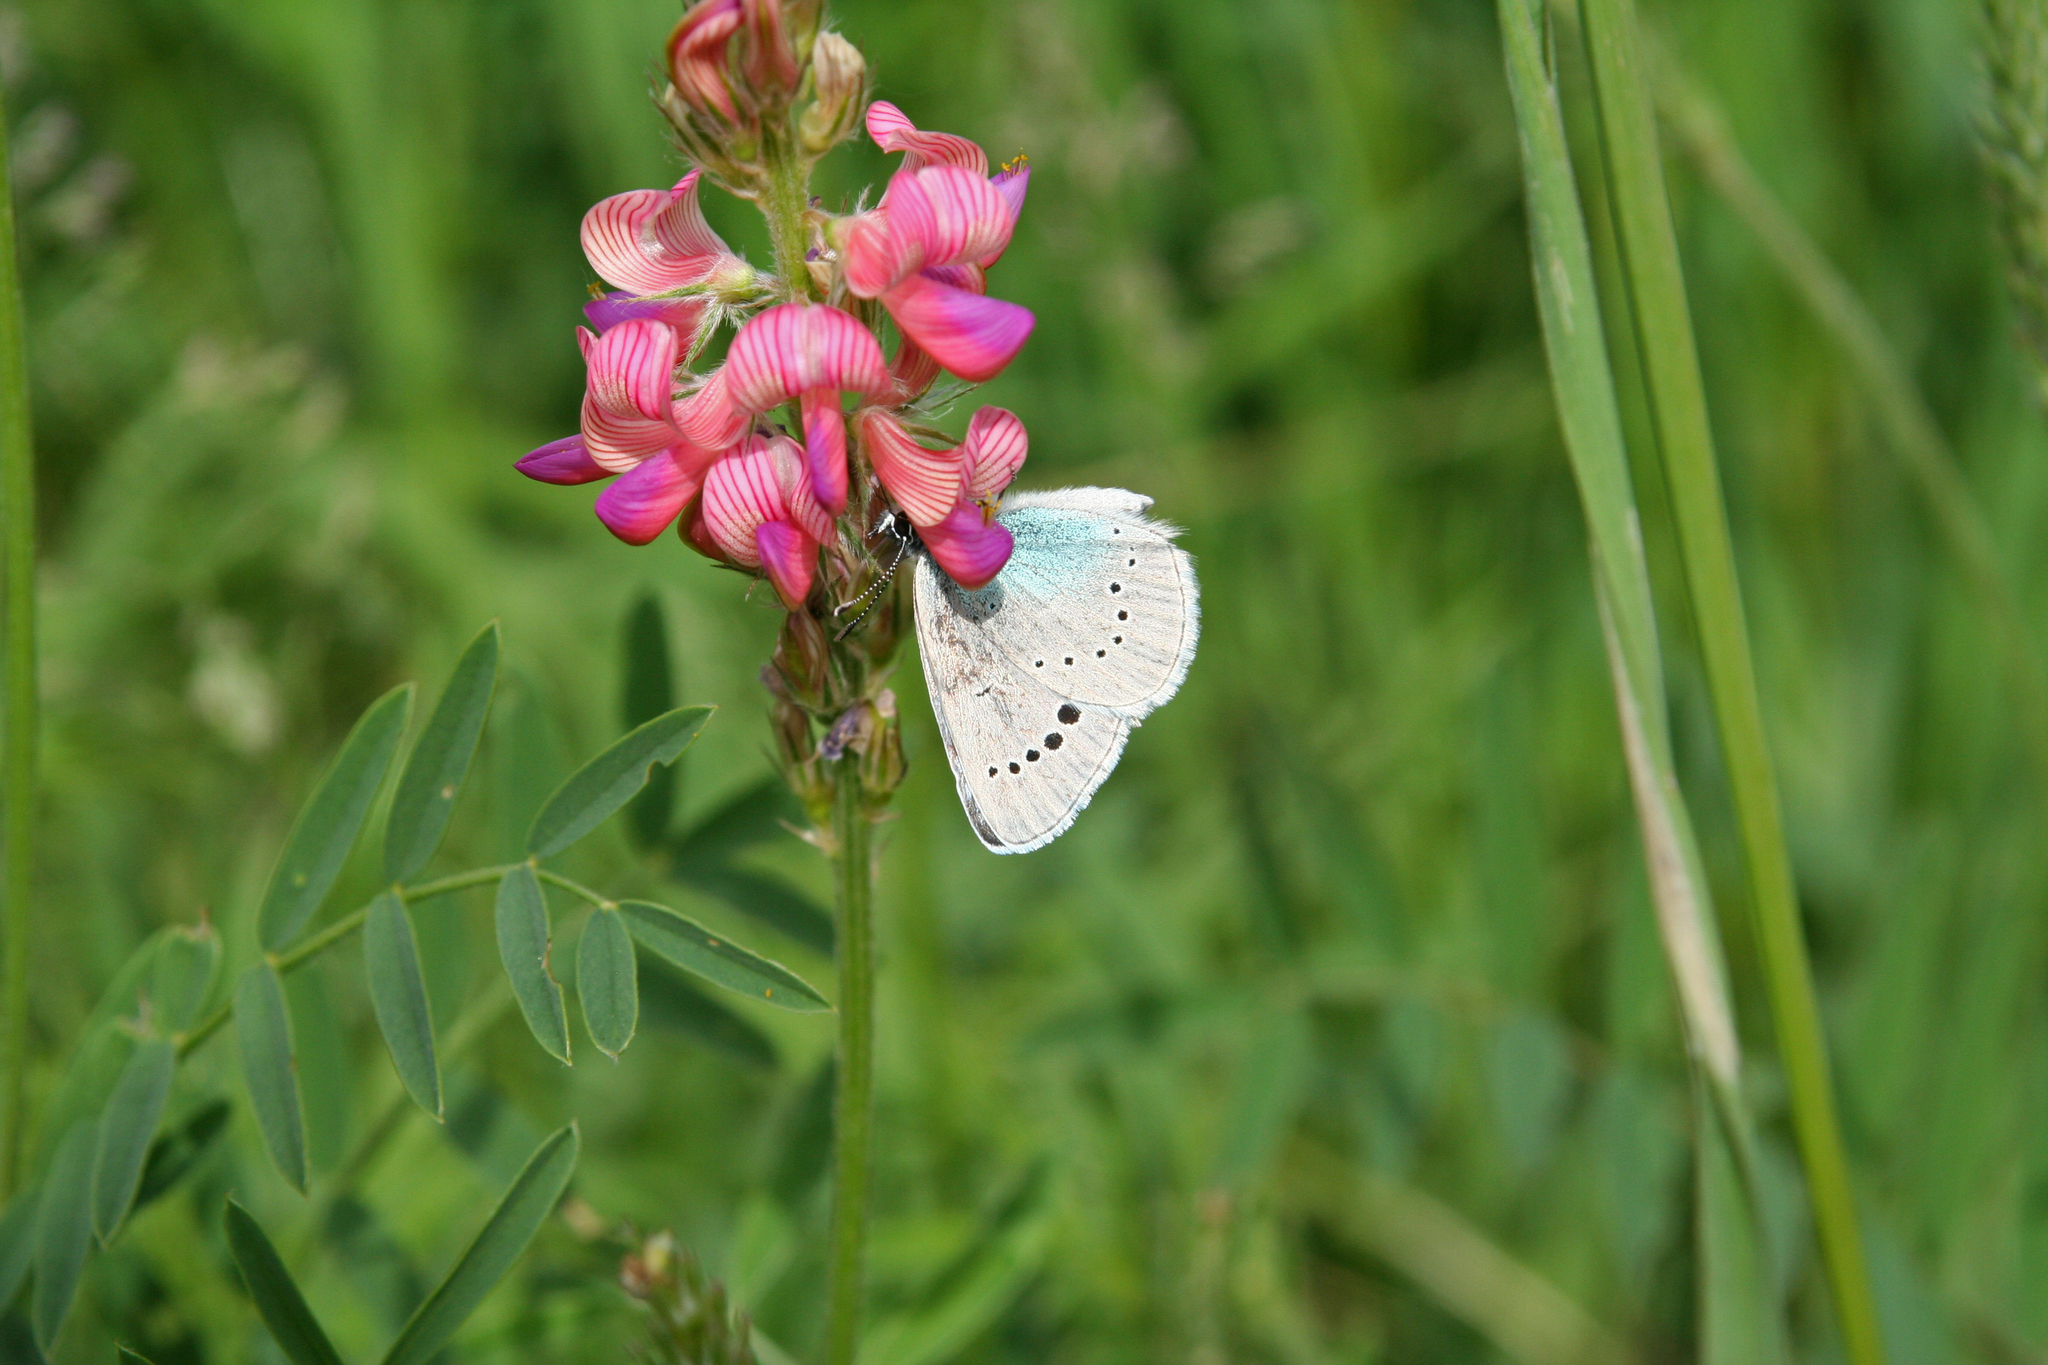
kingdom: Animalia
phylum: Arthropoda
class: Insecta
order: Lepidoptera
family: Lycaenidae
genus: Glaucopsyche
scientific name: Glaucopsyche lycormas
